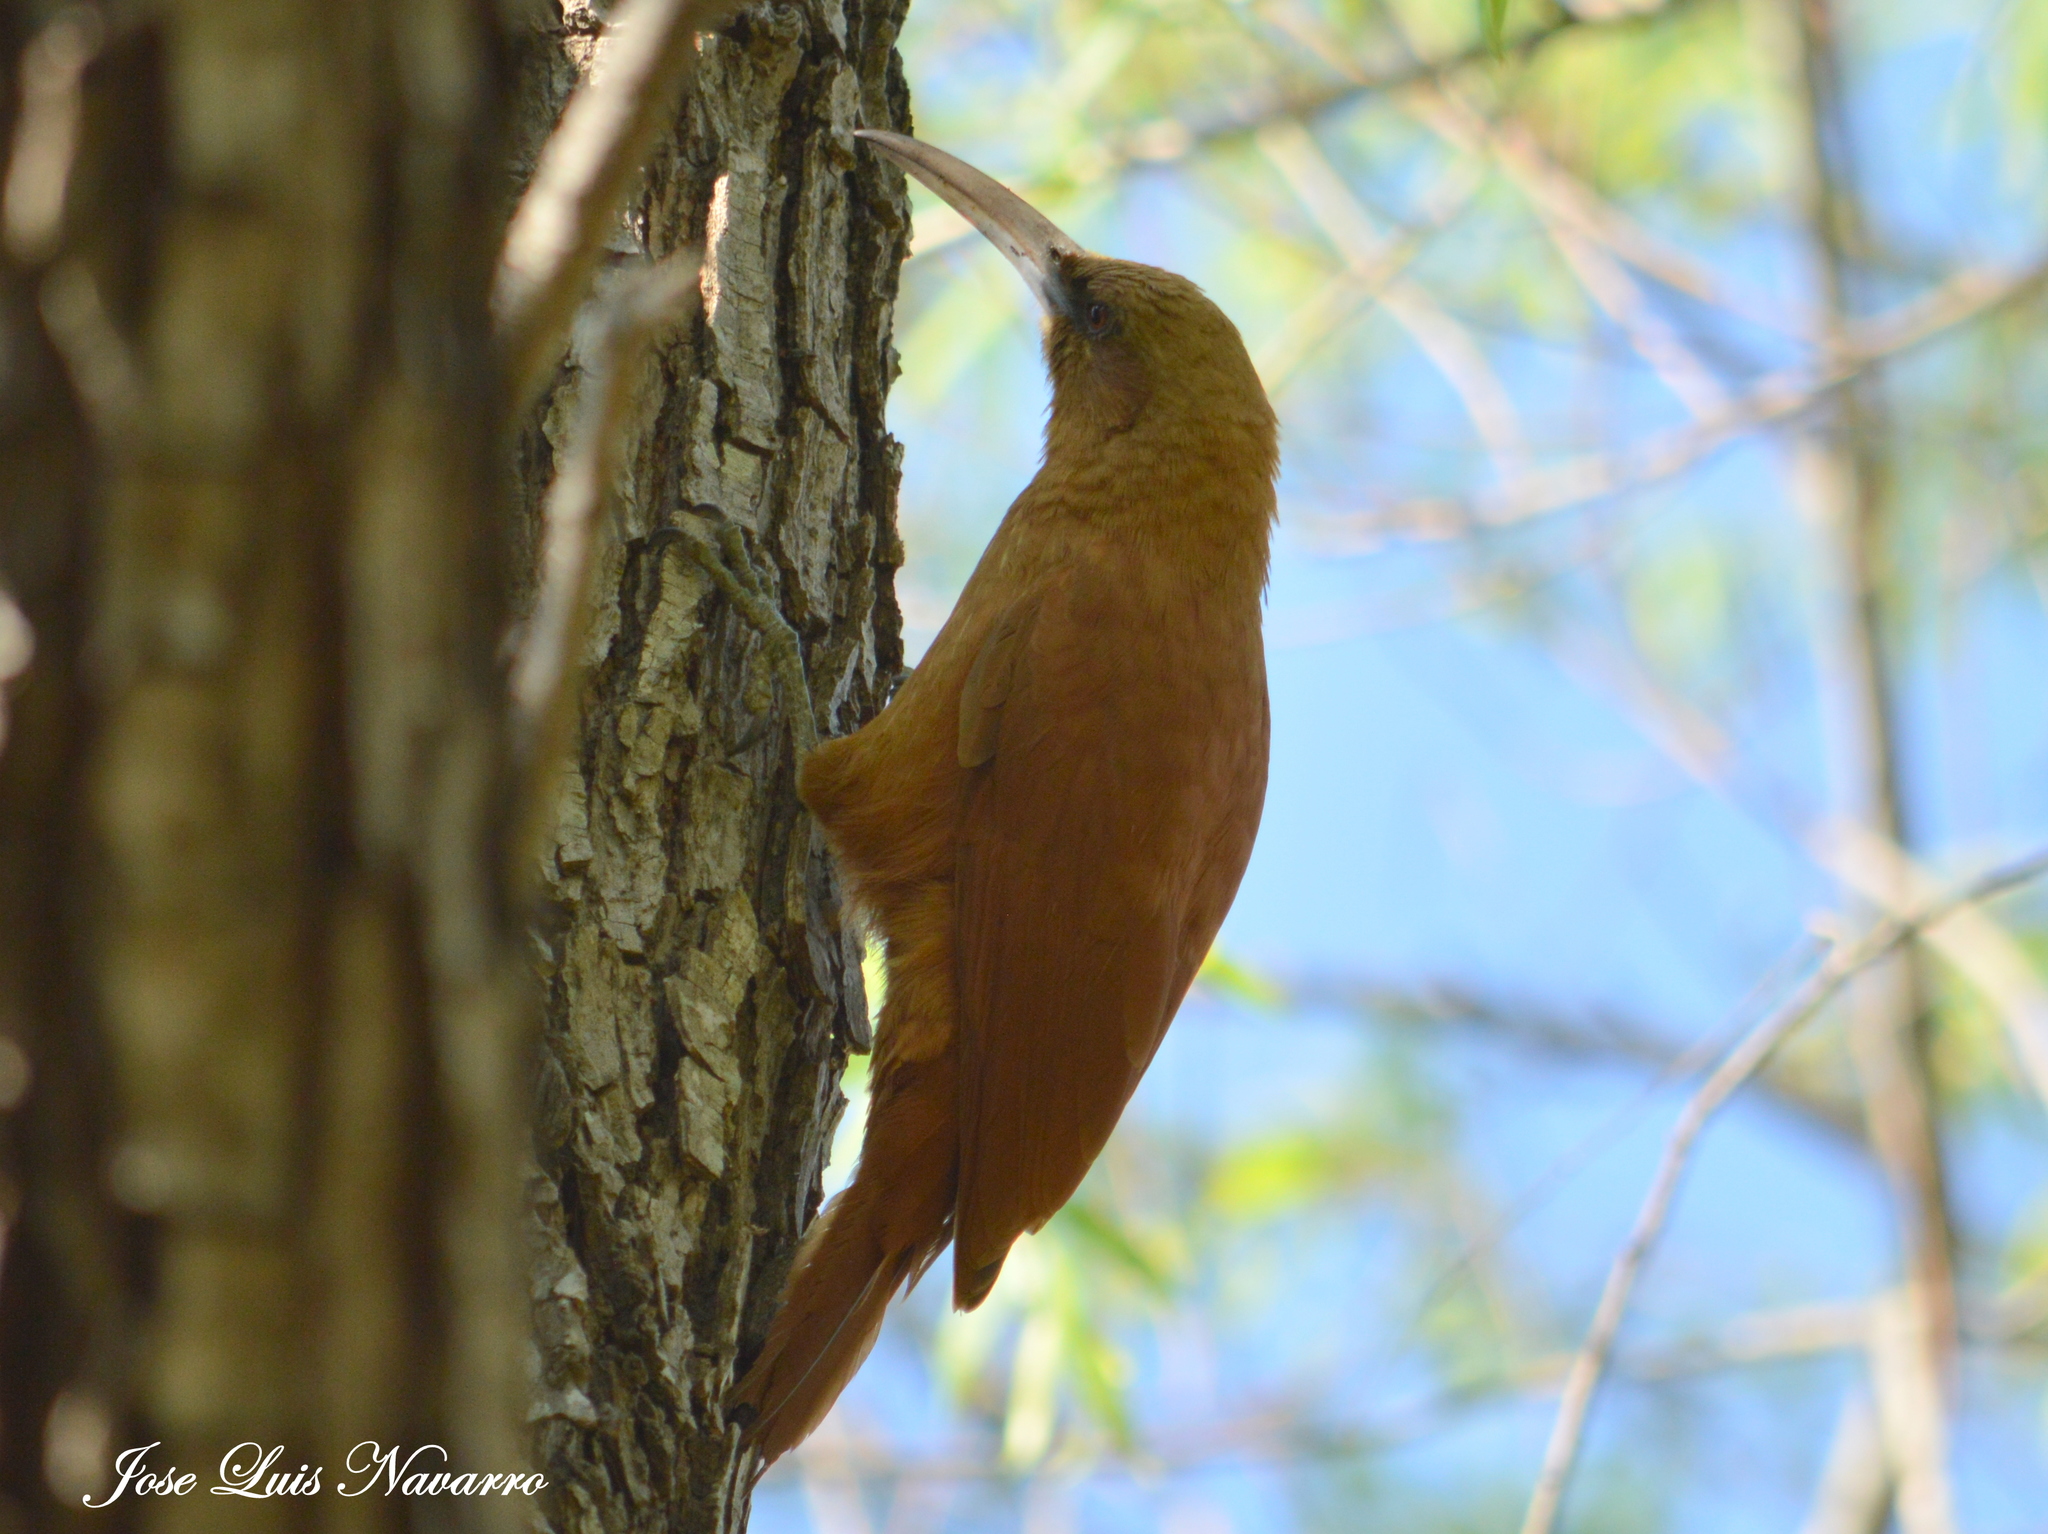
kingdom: Animalia
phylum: Chordata
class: Aves
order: Passeriformes
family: Furnariidae
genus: Xiphocolaptes
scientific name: Xiphocolaptes major
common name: Great rufous woodcreeper
